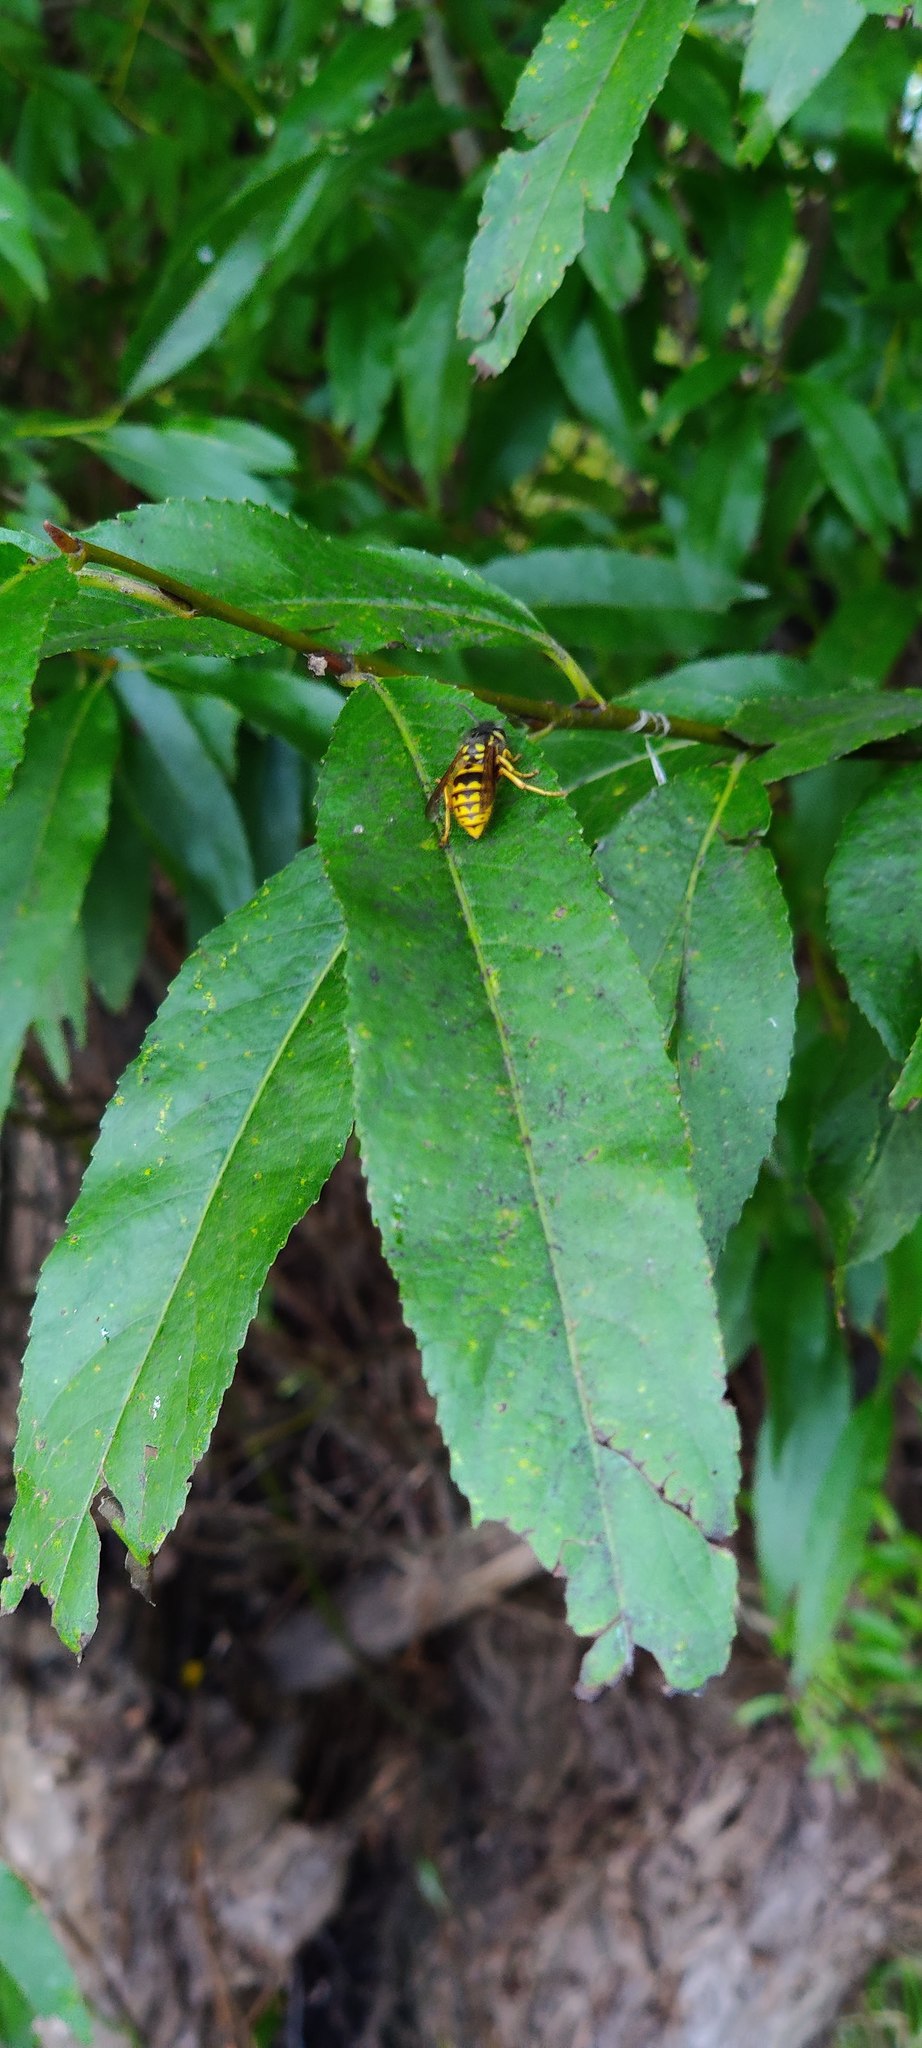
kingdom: Animalia
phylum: Arthropoda
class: Insecta
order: Hymenoptera
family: Vespidae
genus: Vespula
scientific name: Vespula germanica
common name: German wasp
